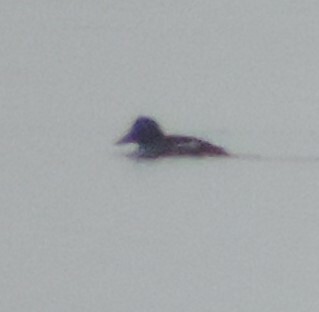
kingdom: Animalia
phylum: Chordata
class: Aves
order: Anseriformes
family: Anatidae
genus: Bucephala
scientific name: Bucephala clangula
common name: Common goldeneye
